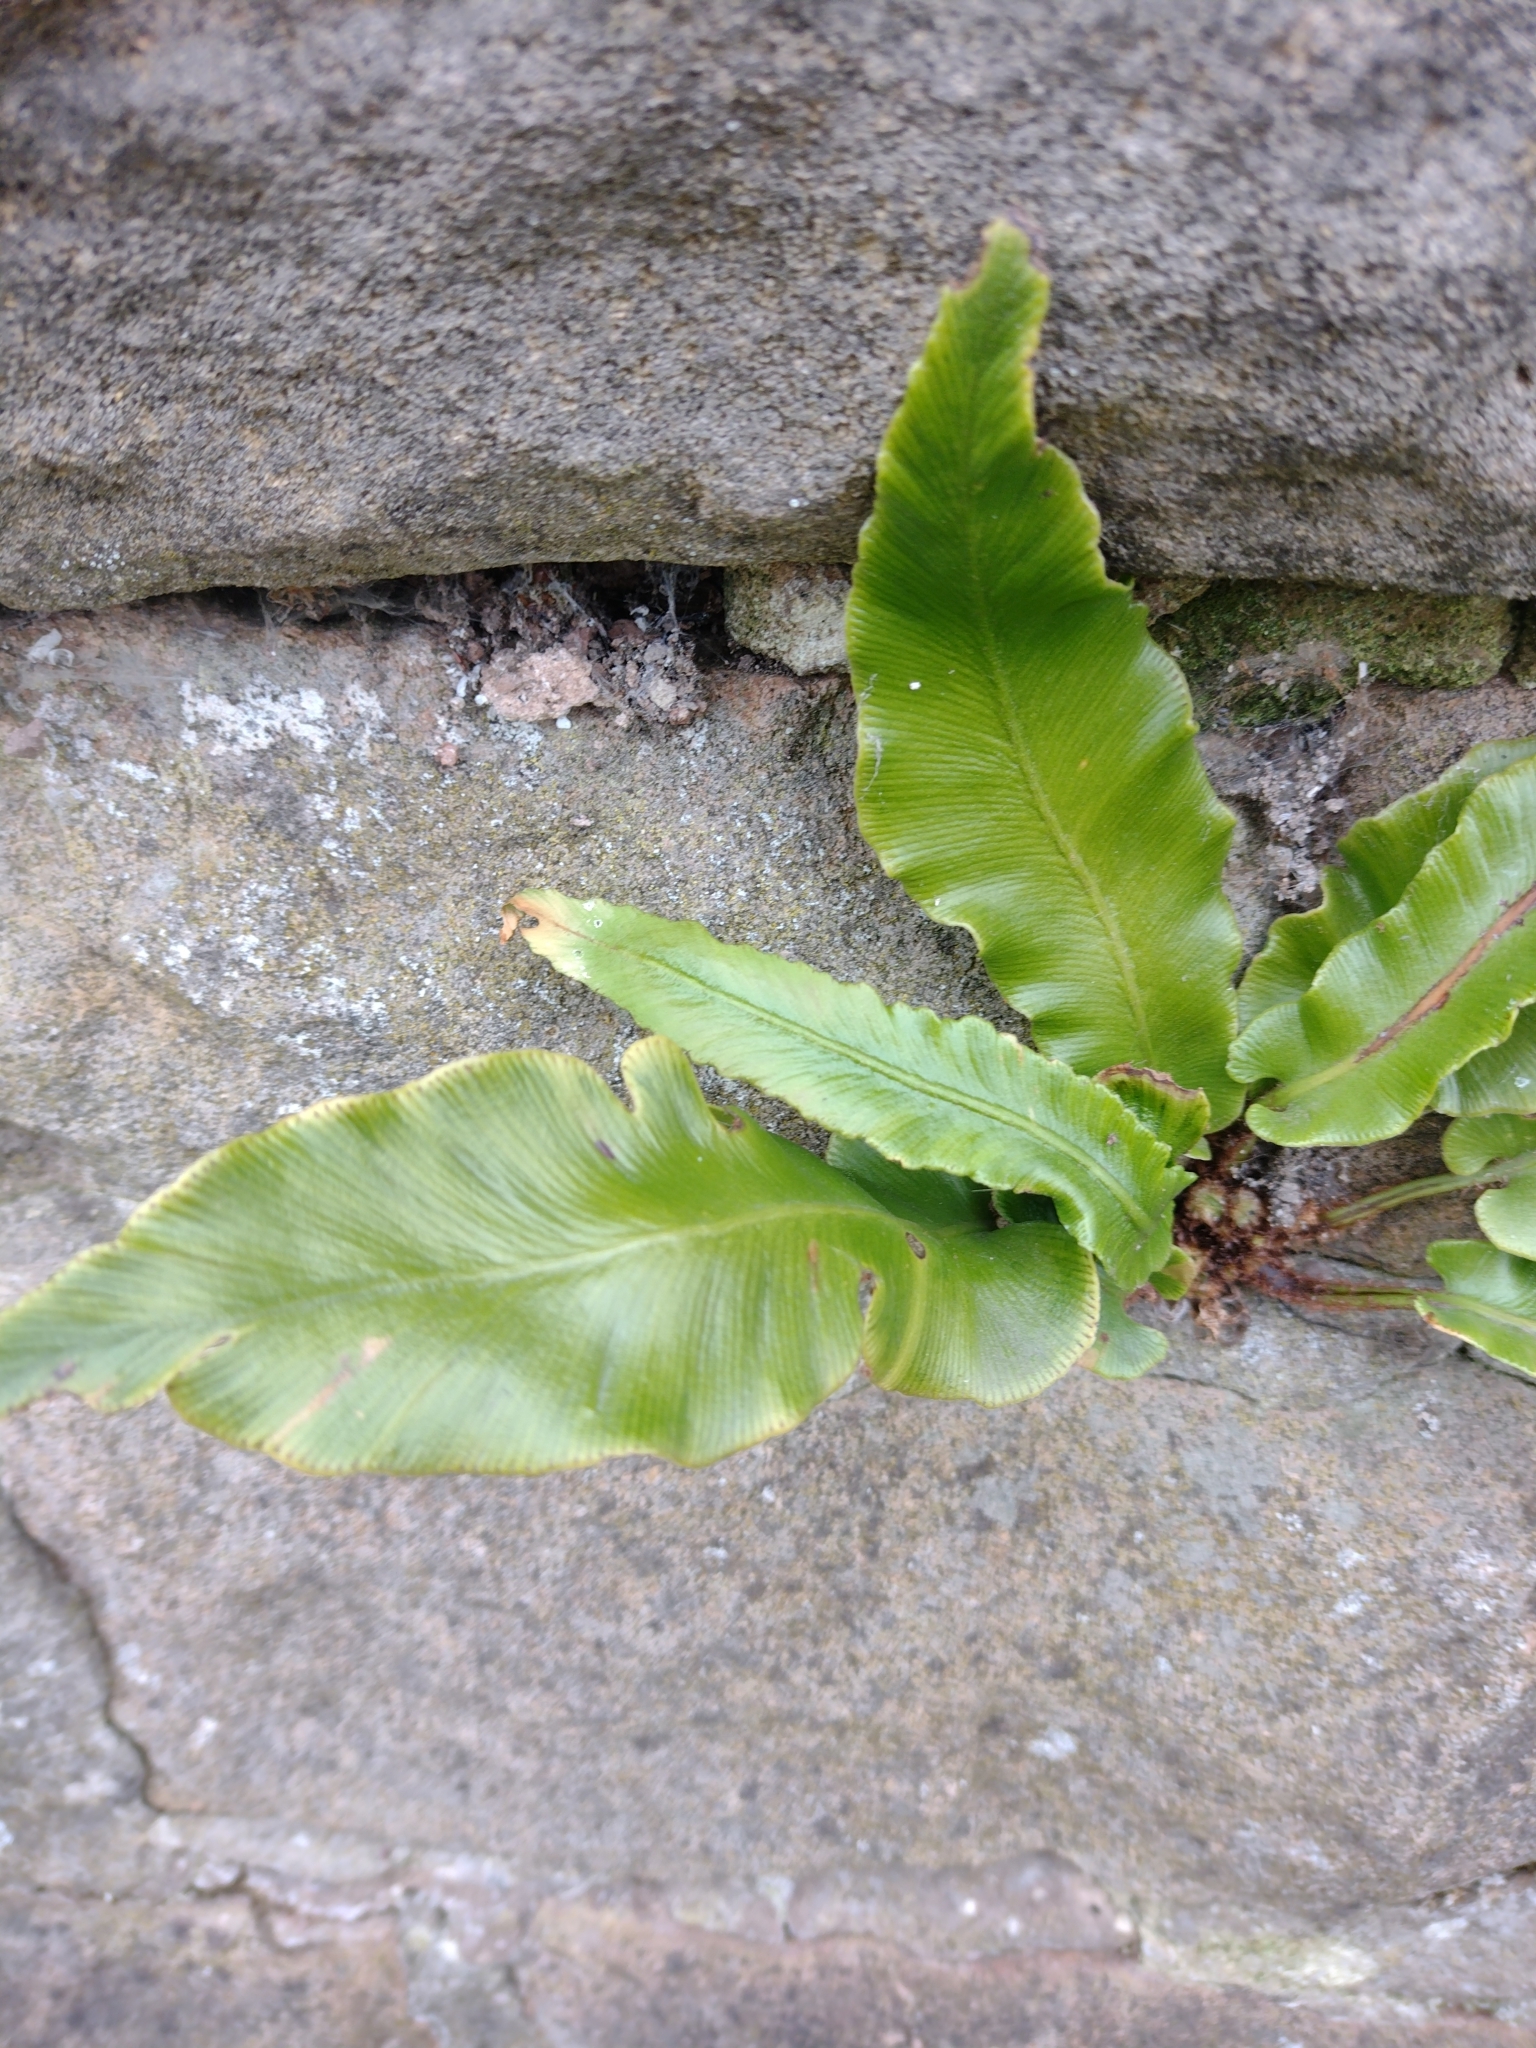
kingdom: Plantae
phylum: Tracheophyta
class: Polypodiopsida
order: Polypodiales
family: Aspleniaceae
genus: Asplenium
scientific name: Asplenium scolopendrium
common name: Hart's-tongue fern
